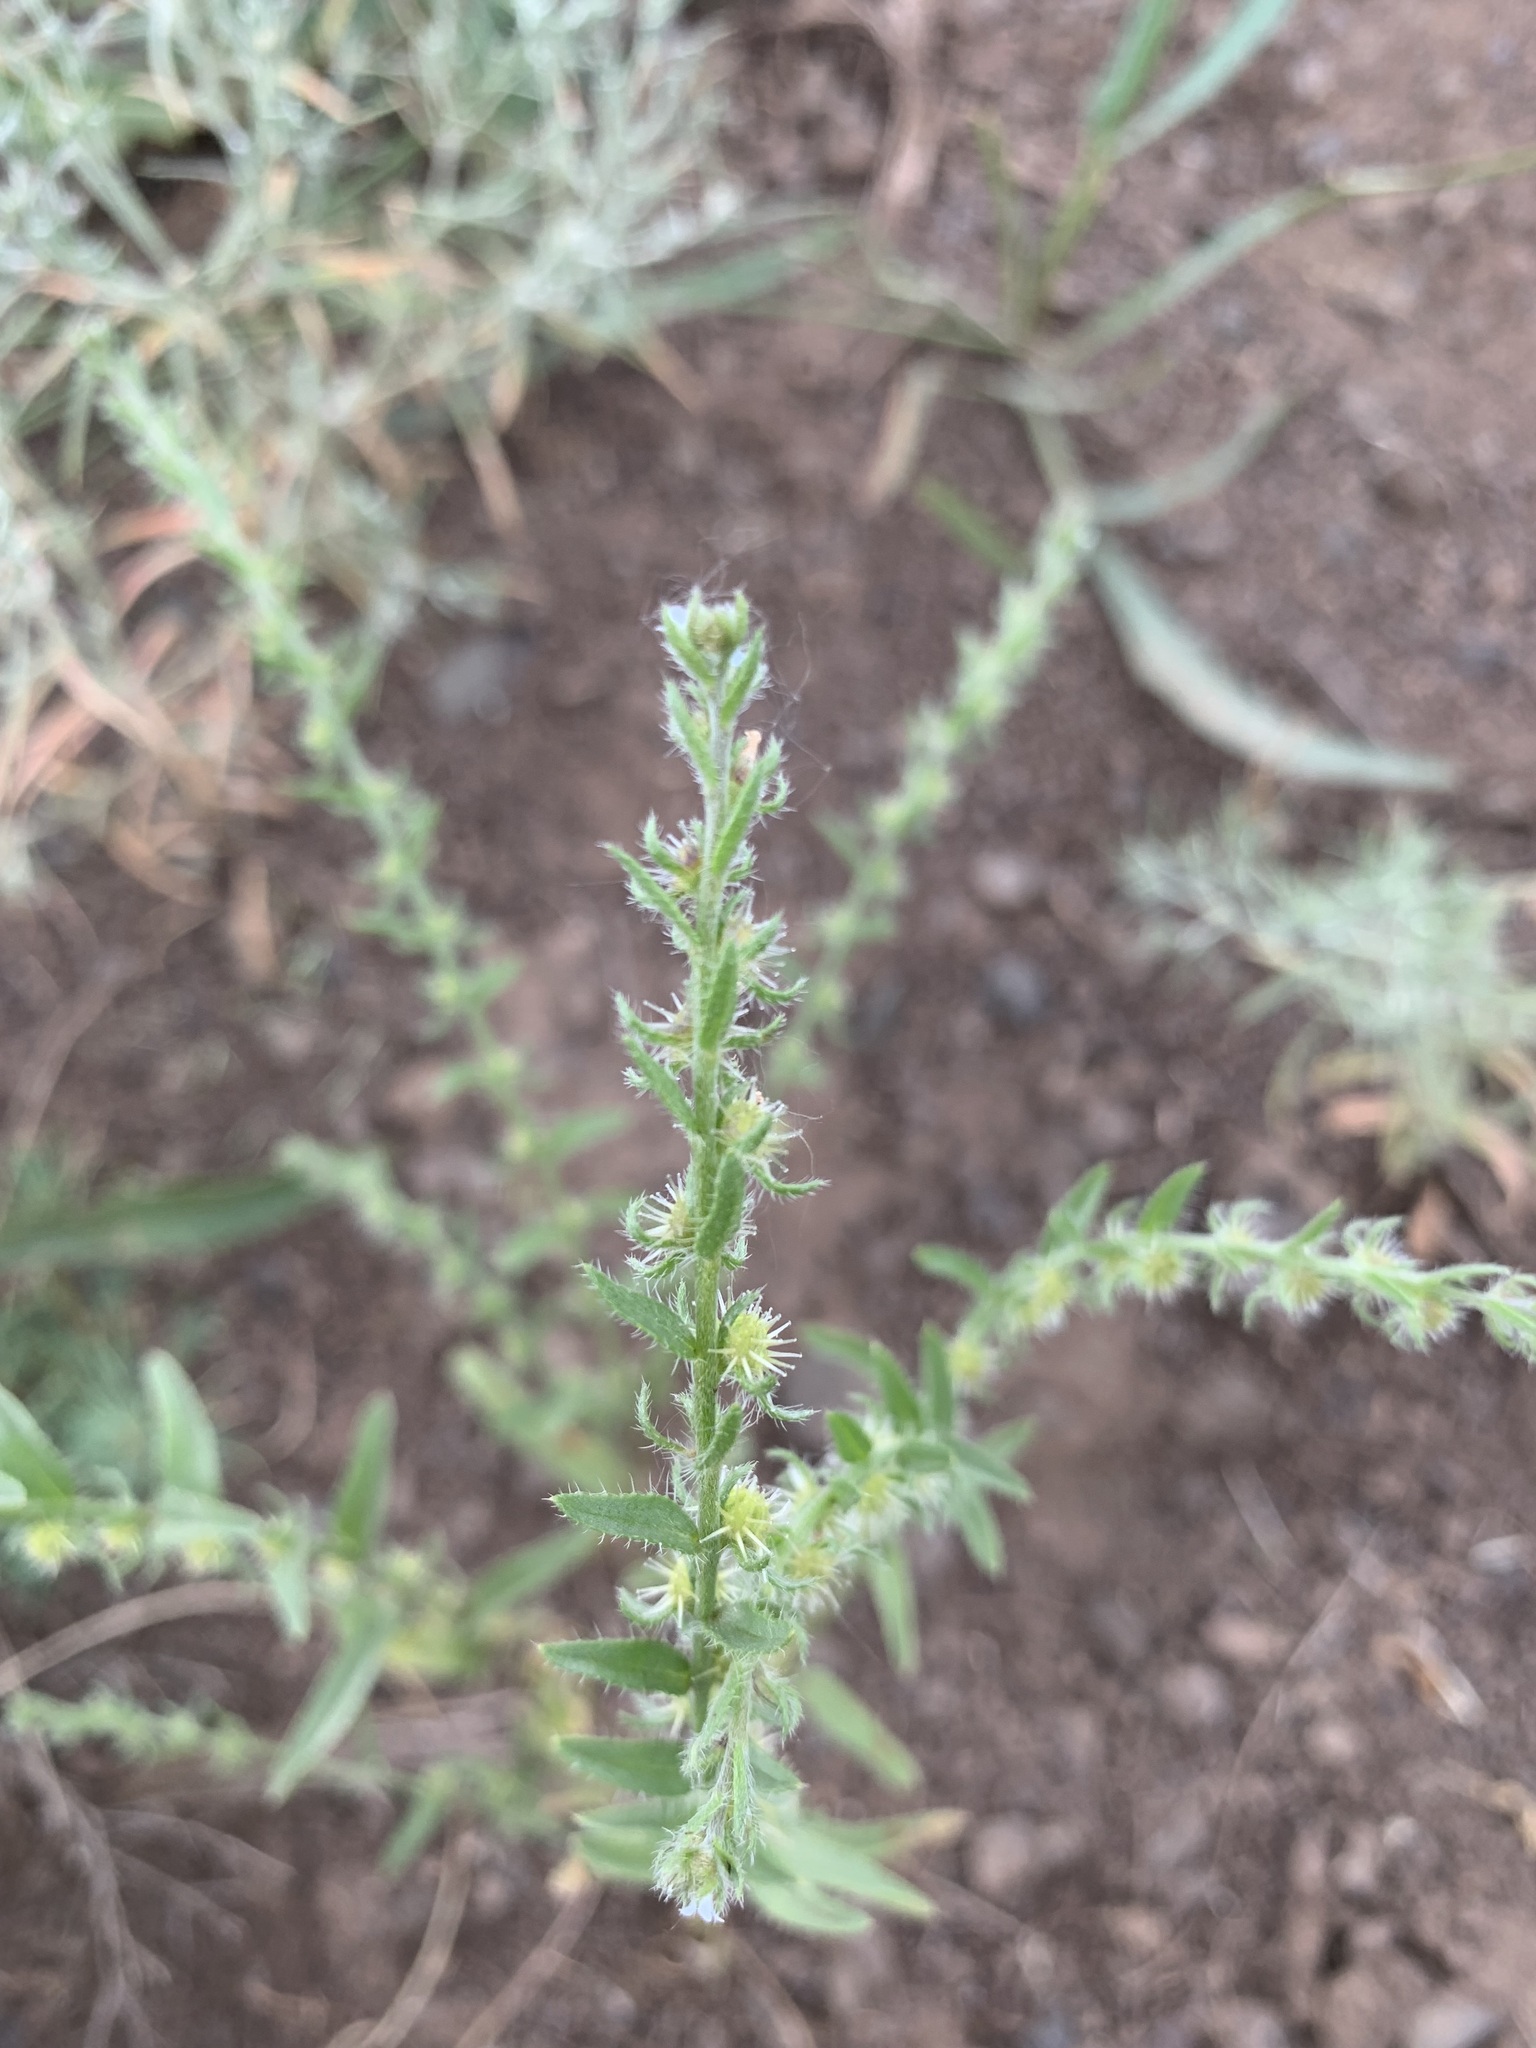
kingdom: Plantae
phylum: Tracheophyta
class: Magnoliopsida
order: Boraginales
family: Boraginaceae
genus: Lappula
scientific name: Lappula stricta
